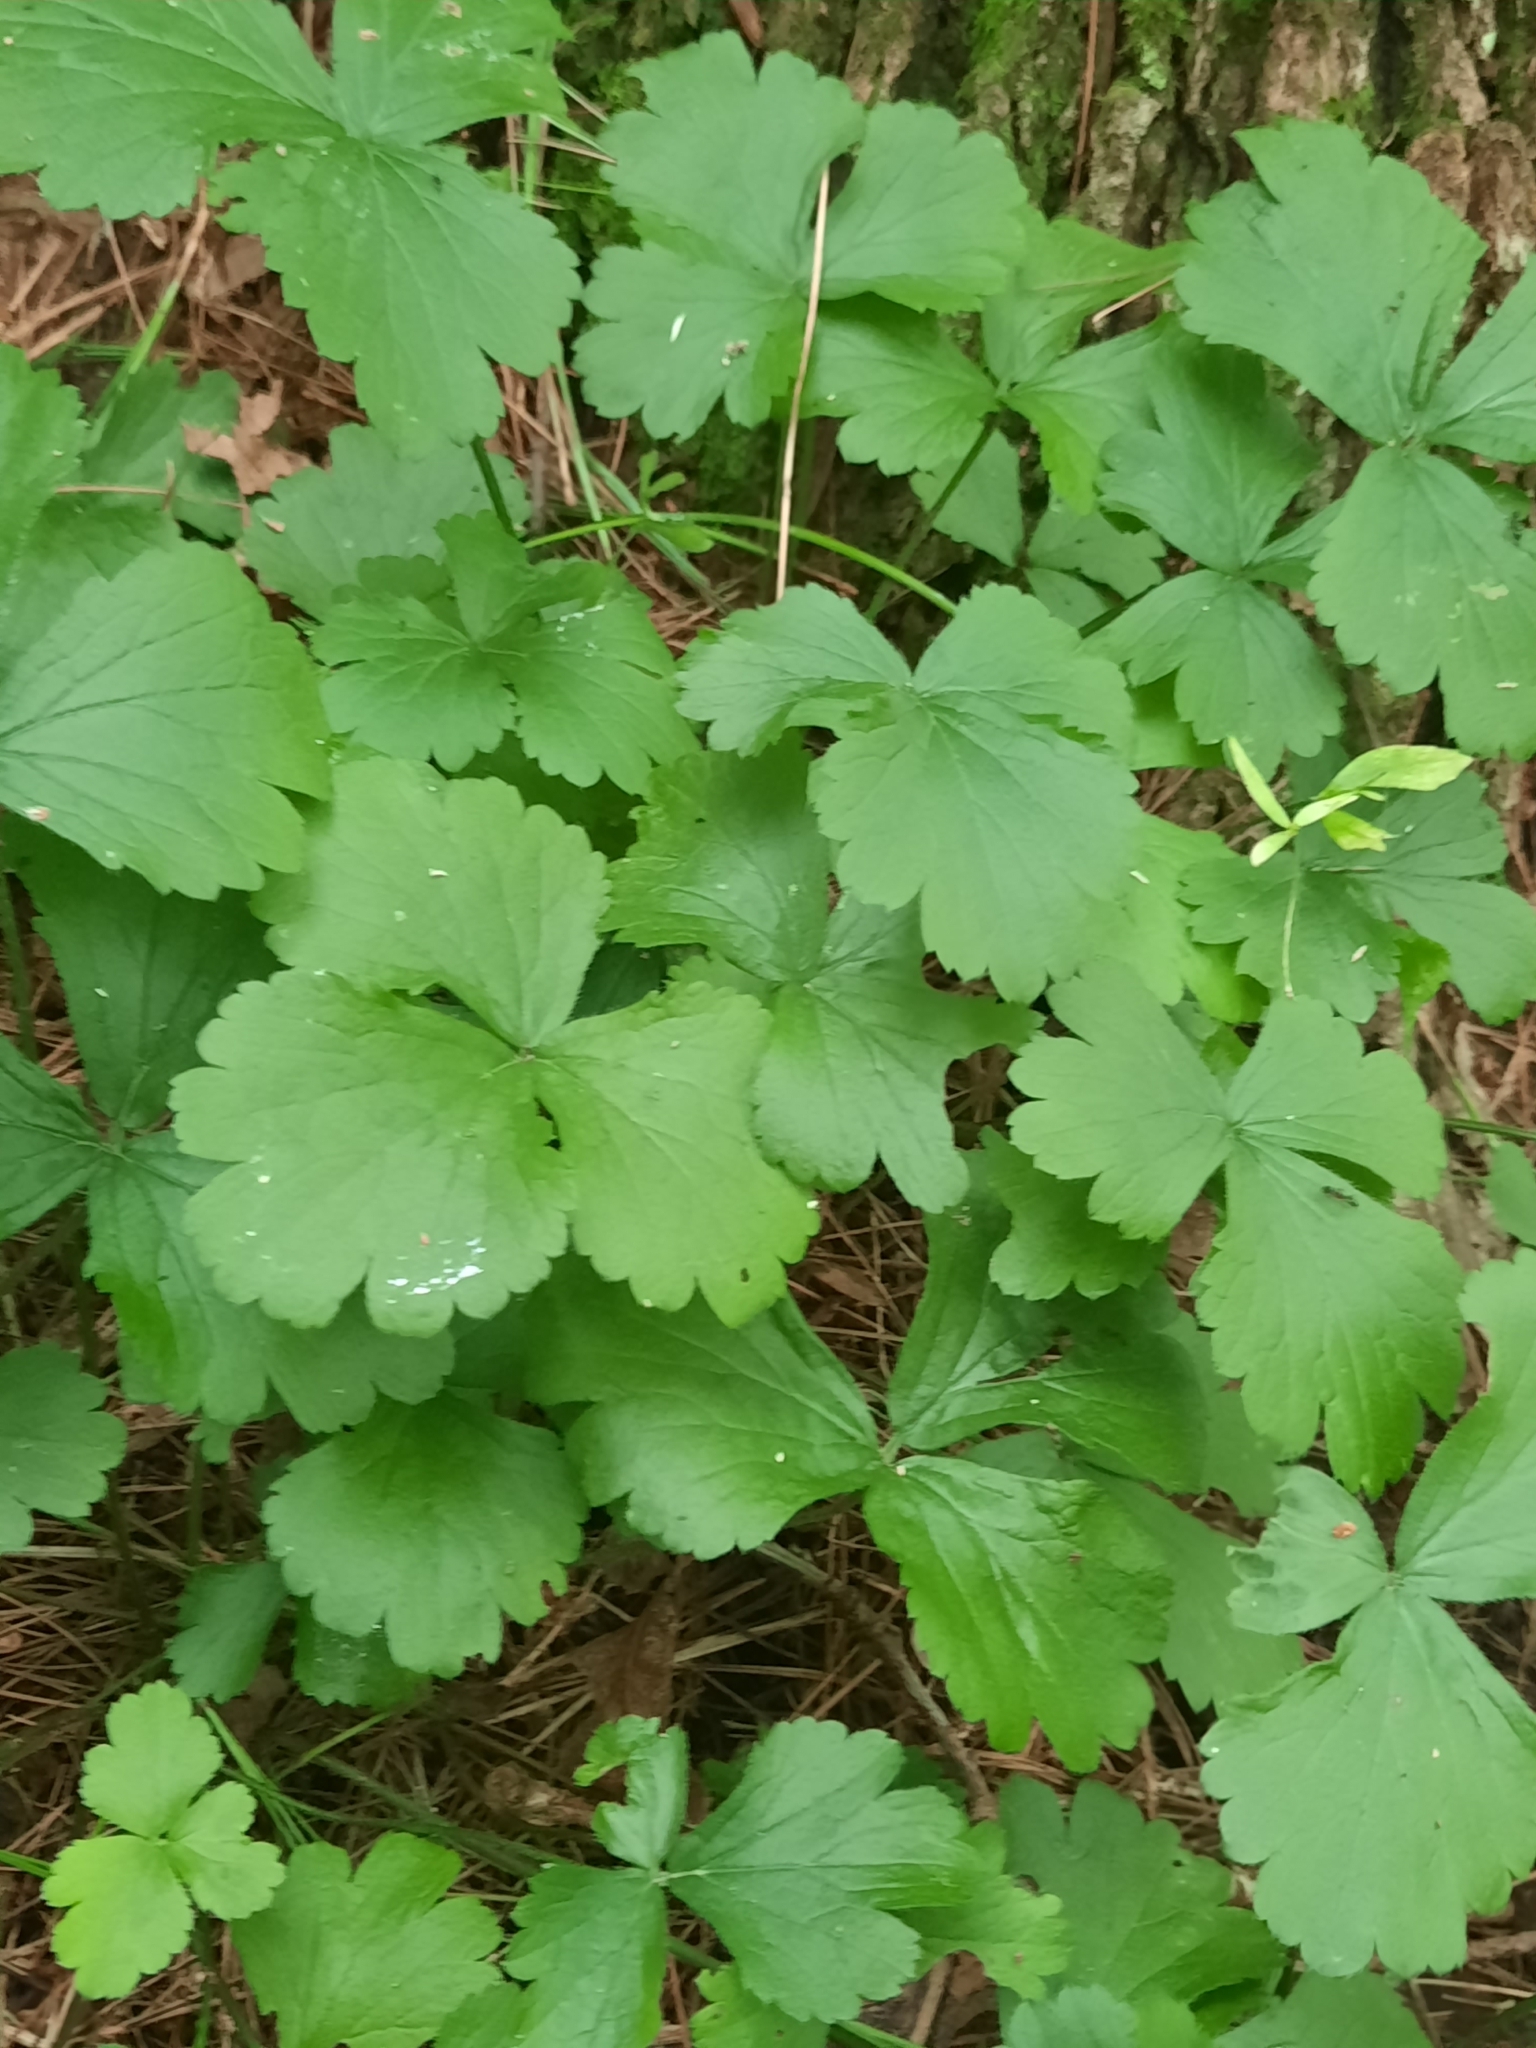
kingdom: Plantae
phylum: Tracheophyta
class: Magnoliopsida
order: Rosales
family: Rosaceae
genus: Geum
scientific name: Geum fragarioides
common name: Appalachian barren strawberry
